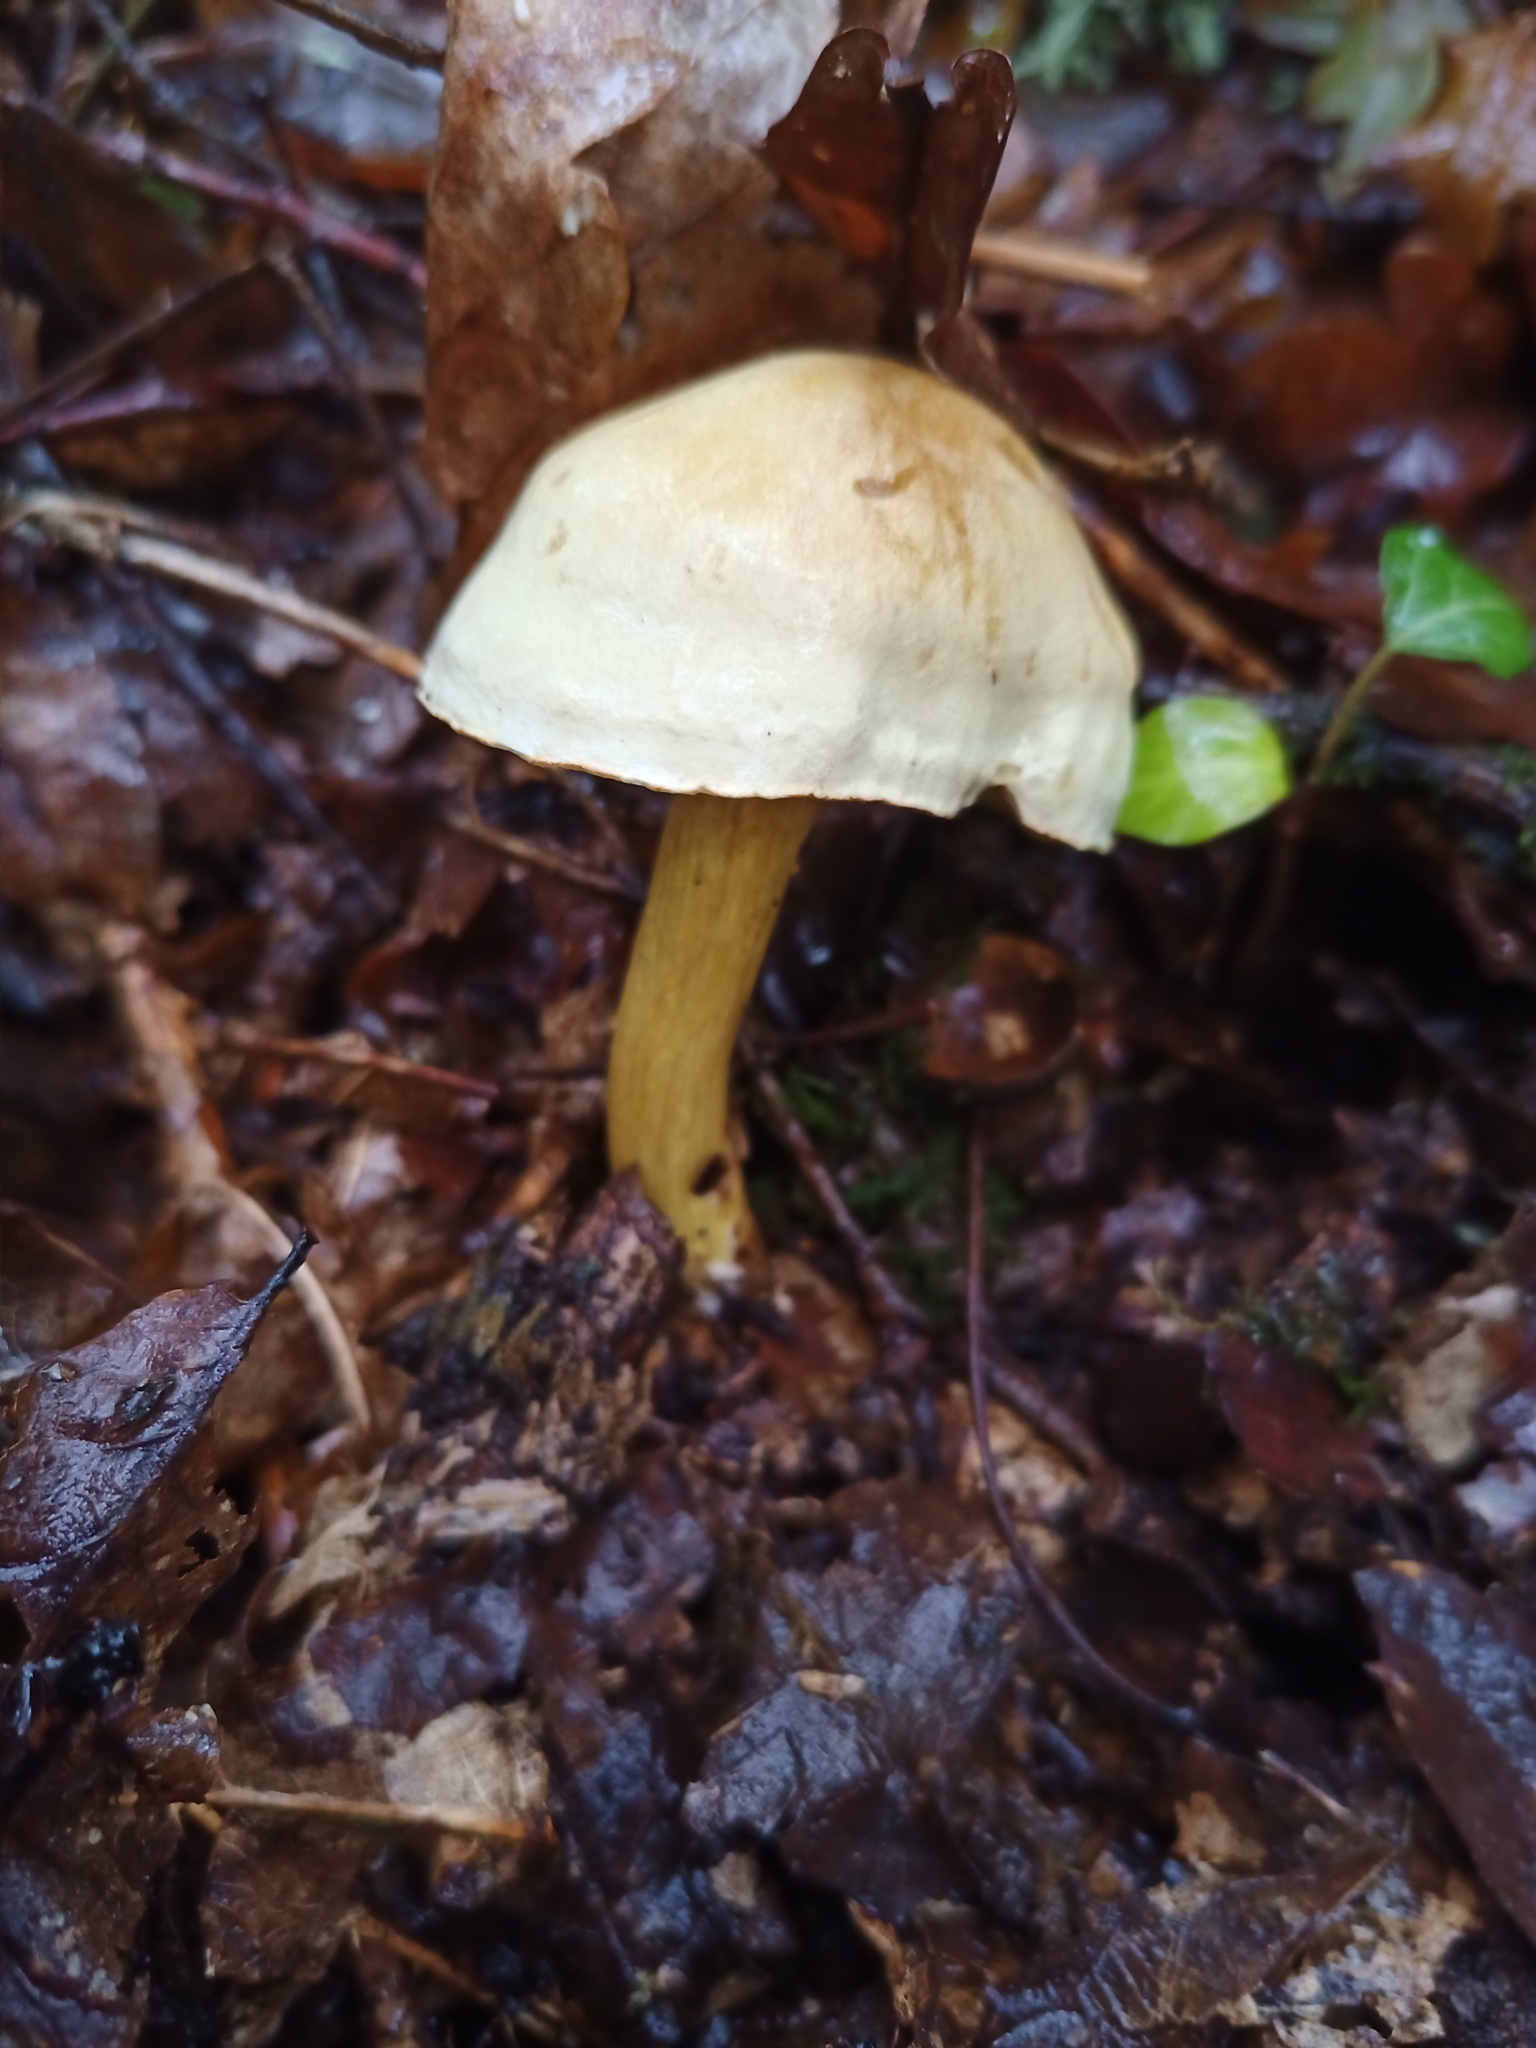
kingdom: Fungi
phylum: Basidiomycota
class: Agaricomycetes
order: Agaricales
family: Tricholomataceae
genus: Tricholoma
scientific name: Tricholoma sulphureum
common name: Stinky knight
